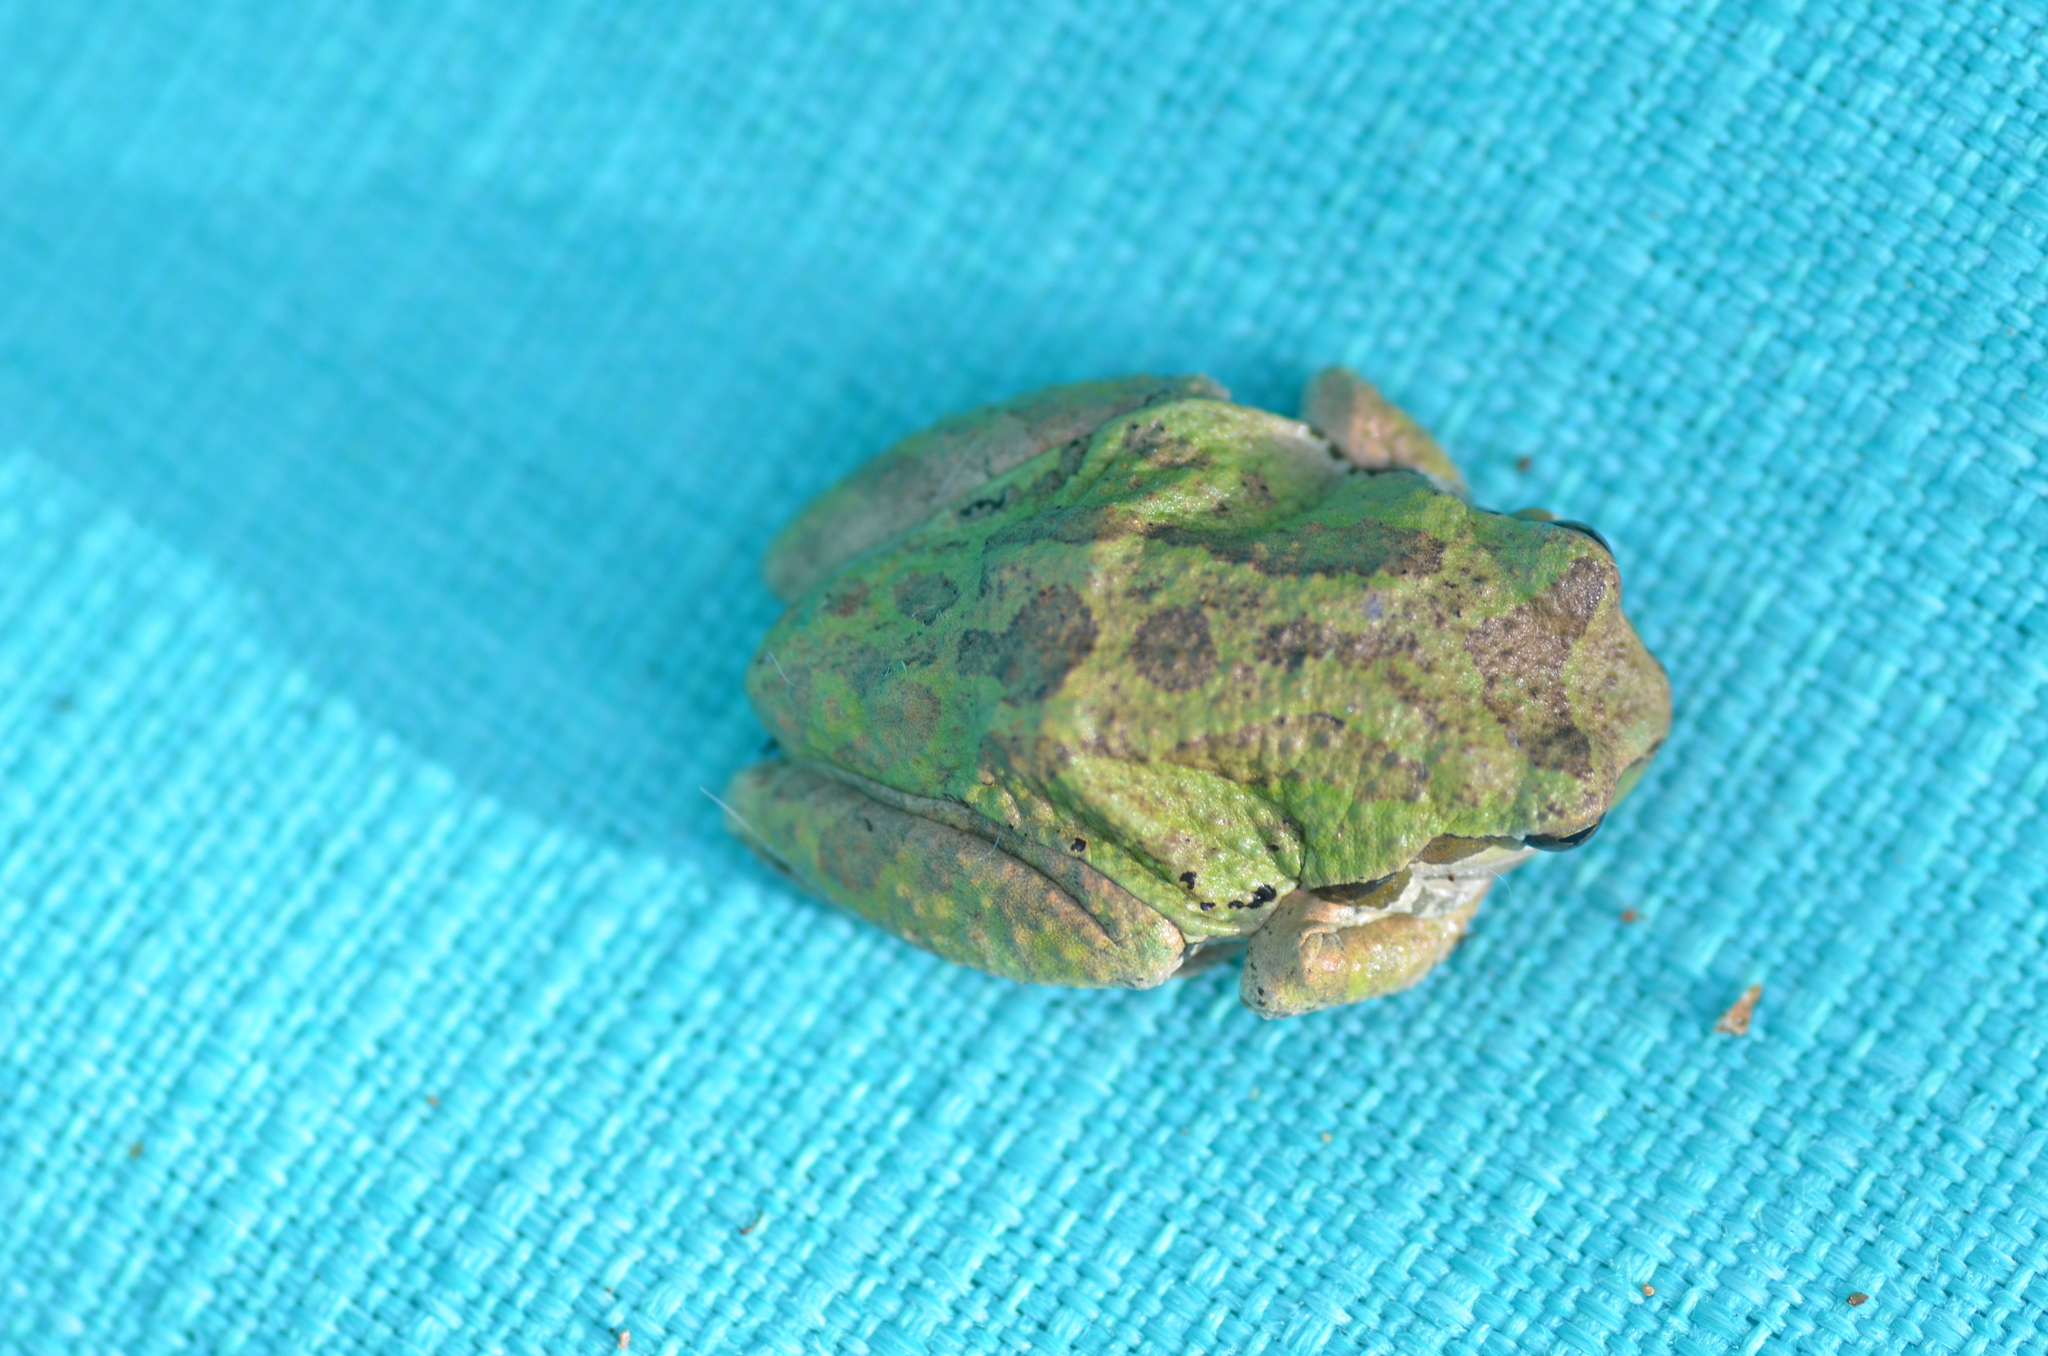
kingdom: Animalia
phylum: Chordata
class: Amphibia
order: Anura
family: Hylidae
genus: Pseudacris
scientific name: Pseudacris regilla
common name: Pacific chorus frog
